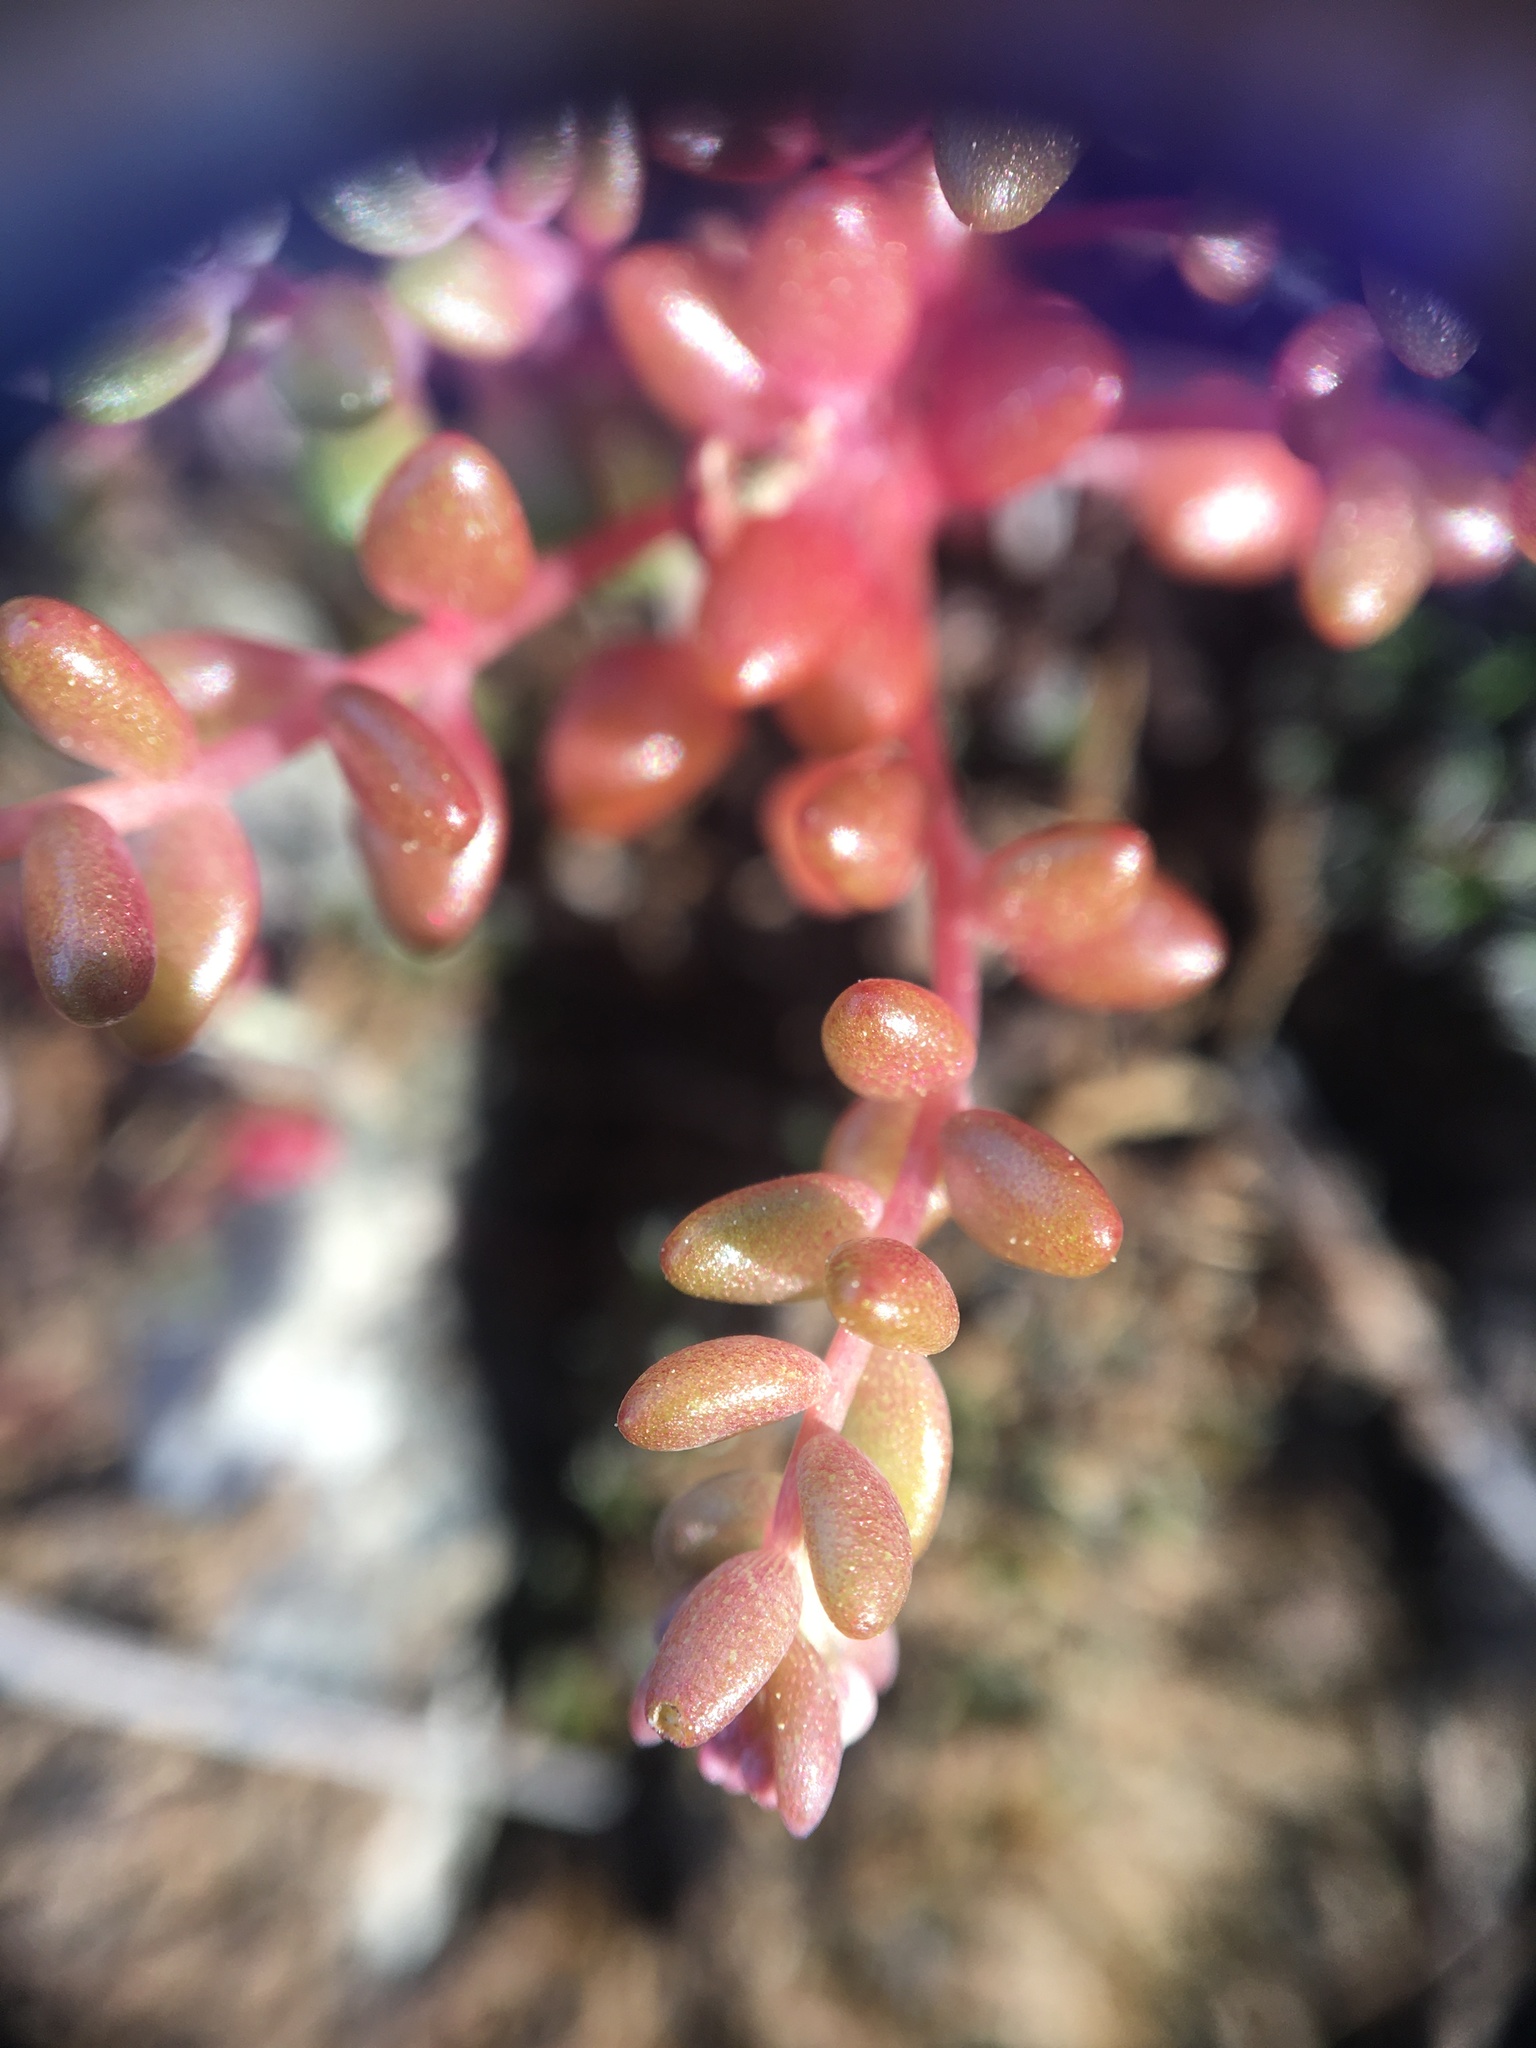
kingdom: Plantae
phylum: Tracheophyta
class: Magnoliopsida
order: Saxifragales
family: Crassulaceae
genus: Sedum
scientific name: Sedum smallii
